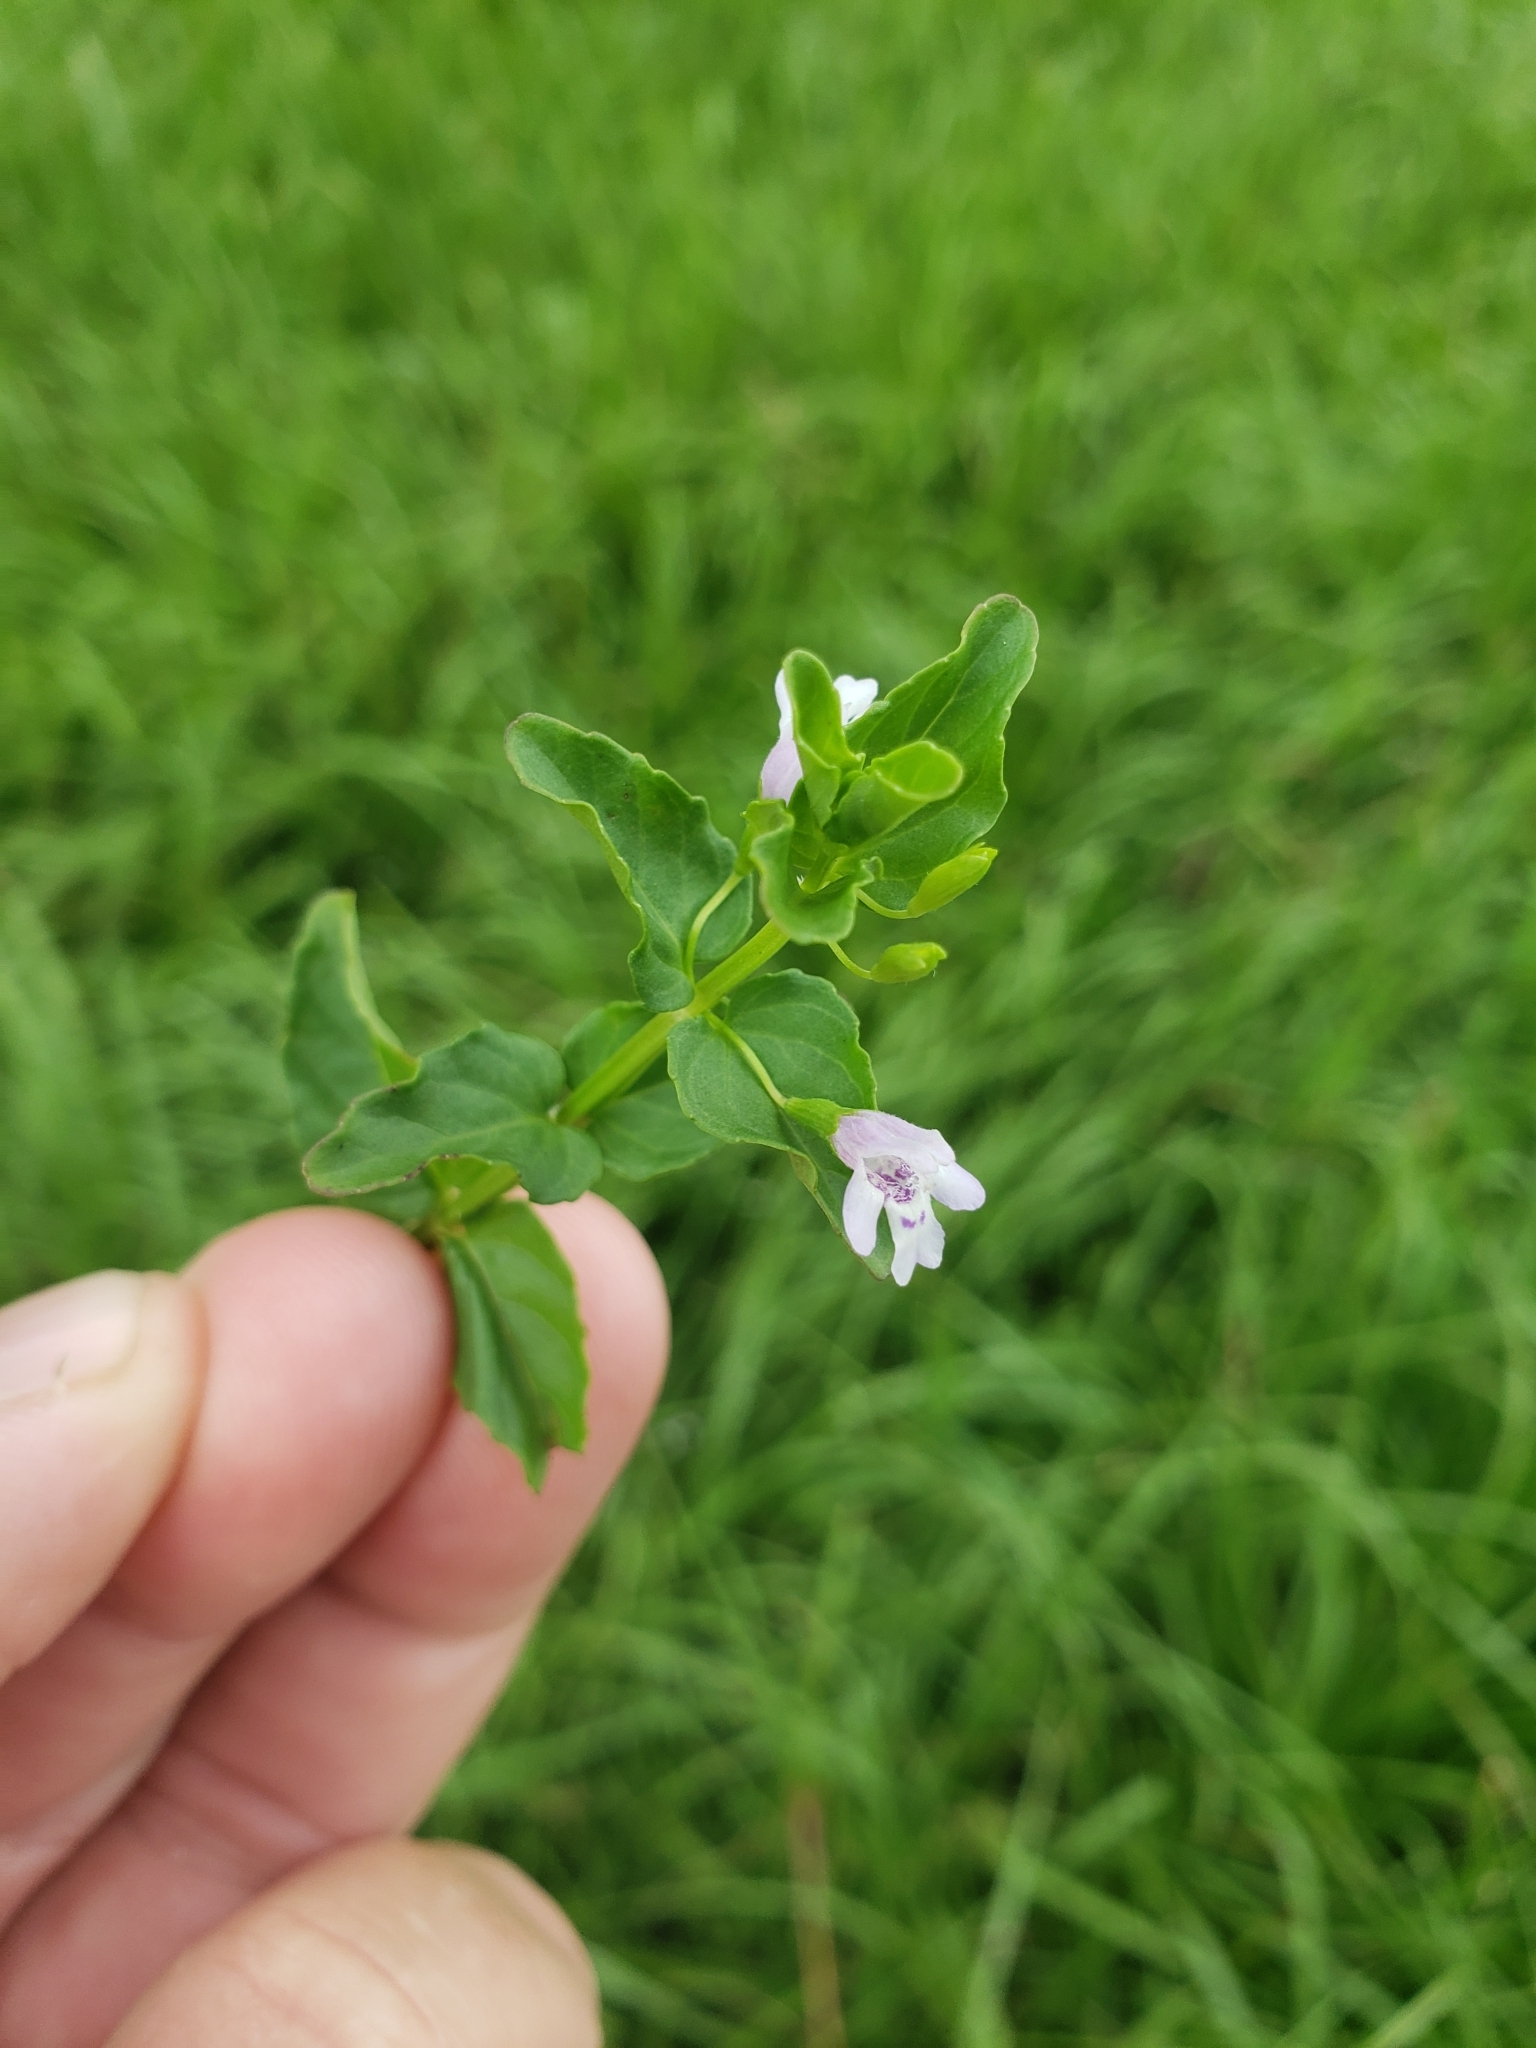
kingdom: Plantae
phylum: Tracheophyta
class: Magnoliopsida
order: Lamiales
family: Lamiaceae
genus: Clinopodium
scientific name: Clinopodium brownei
